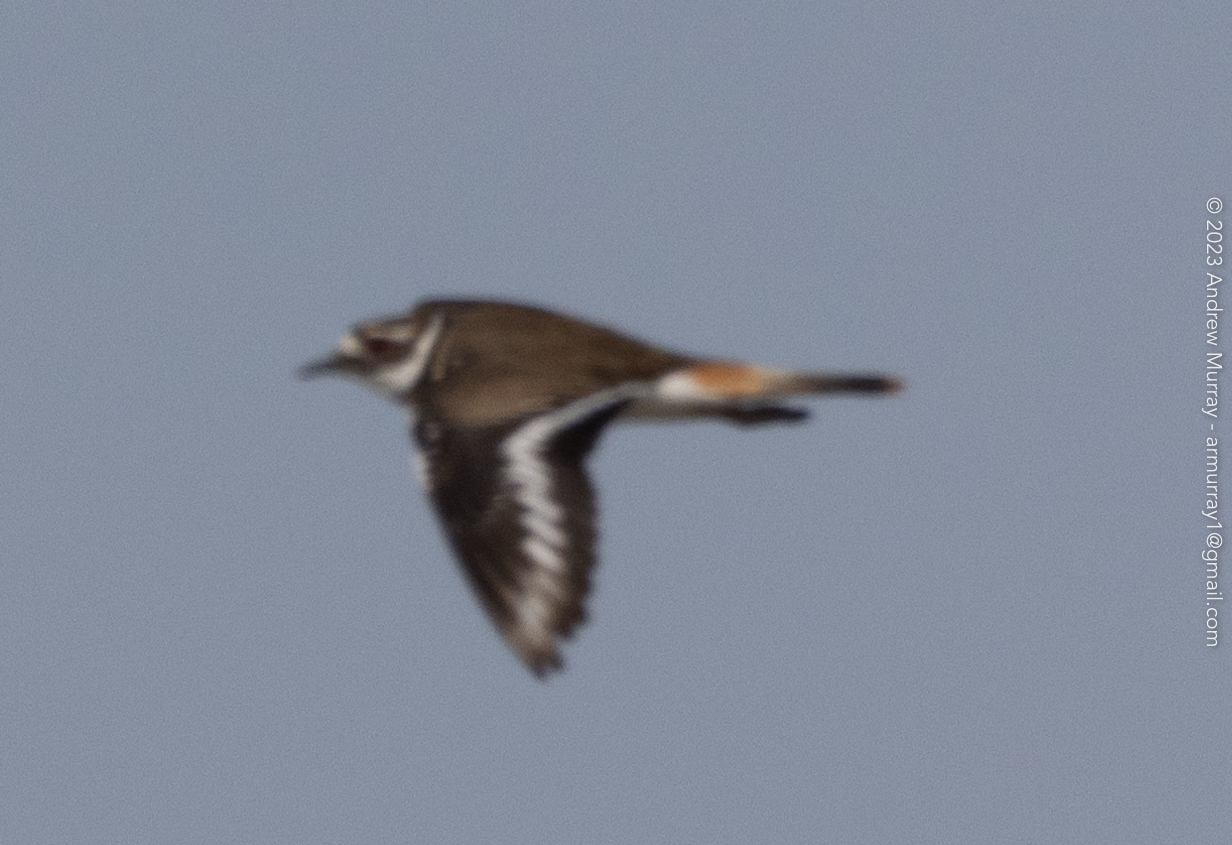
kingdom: Animalia
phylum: Chordata
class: Aves
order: Charadriiformes
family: Charadriidae
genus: Charadrius
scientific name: Charadrius vociferus
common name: Killdeer
